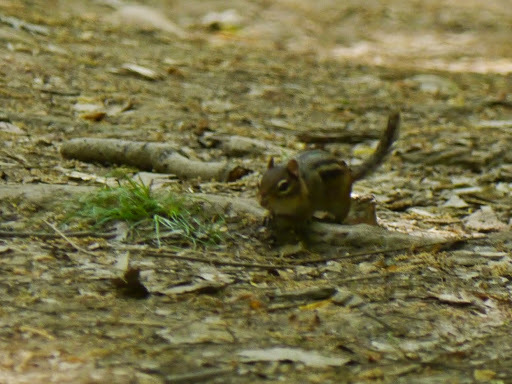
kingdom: Animalia
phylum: Chordata
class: Mammalia
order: Rodentia
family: Sciuridae
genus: Tamias
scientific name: Tamias striatus
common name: Eastern chipmunk
